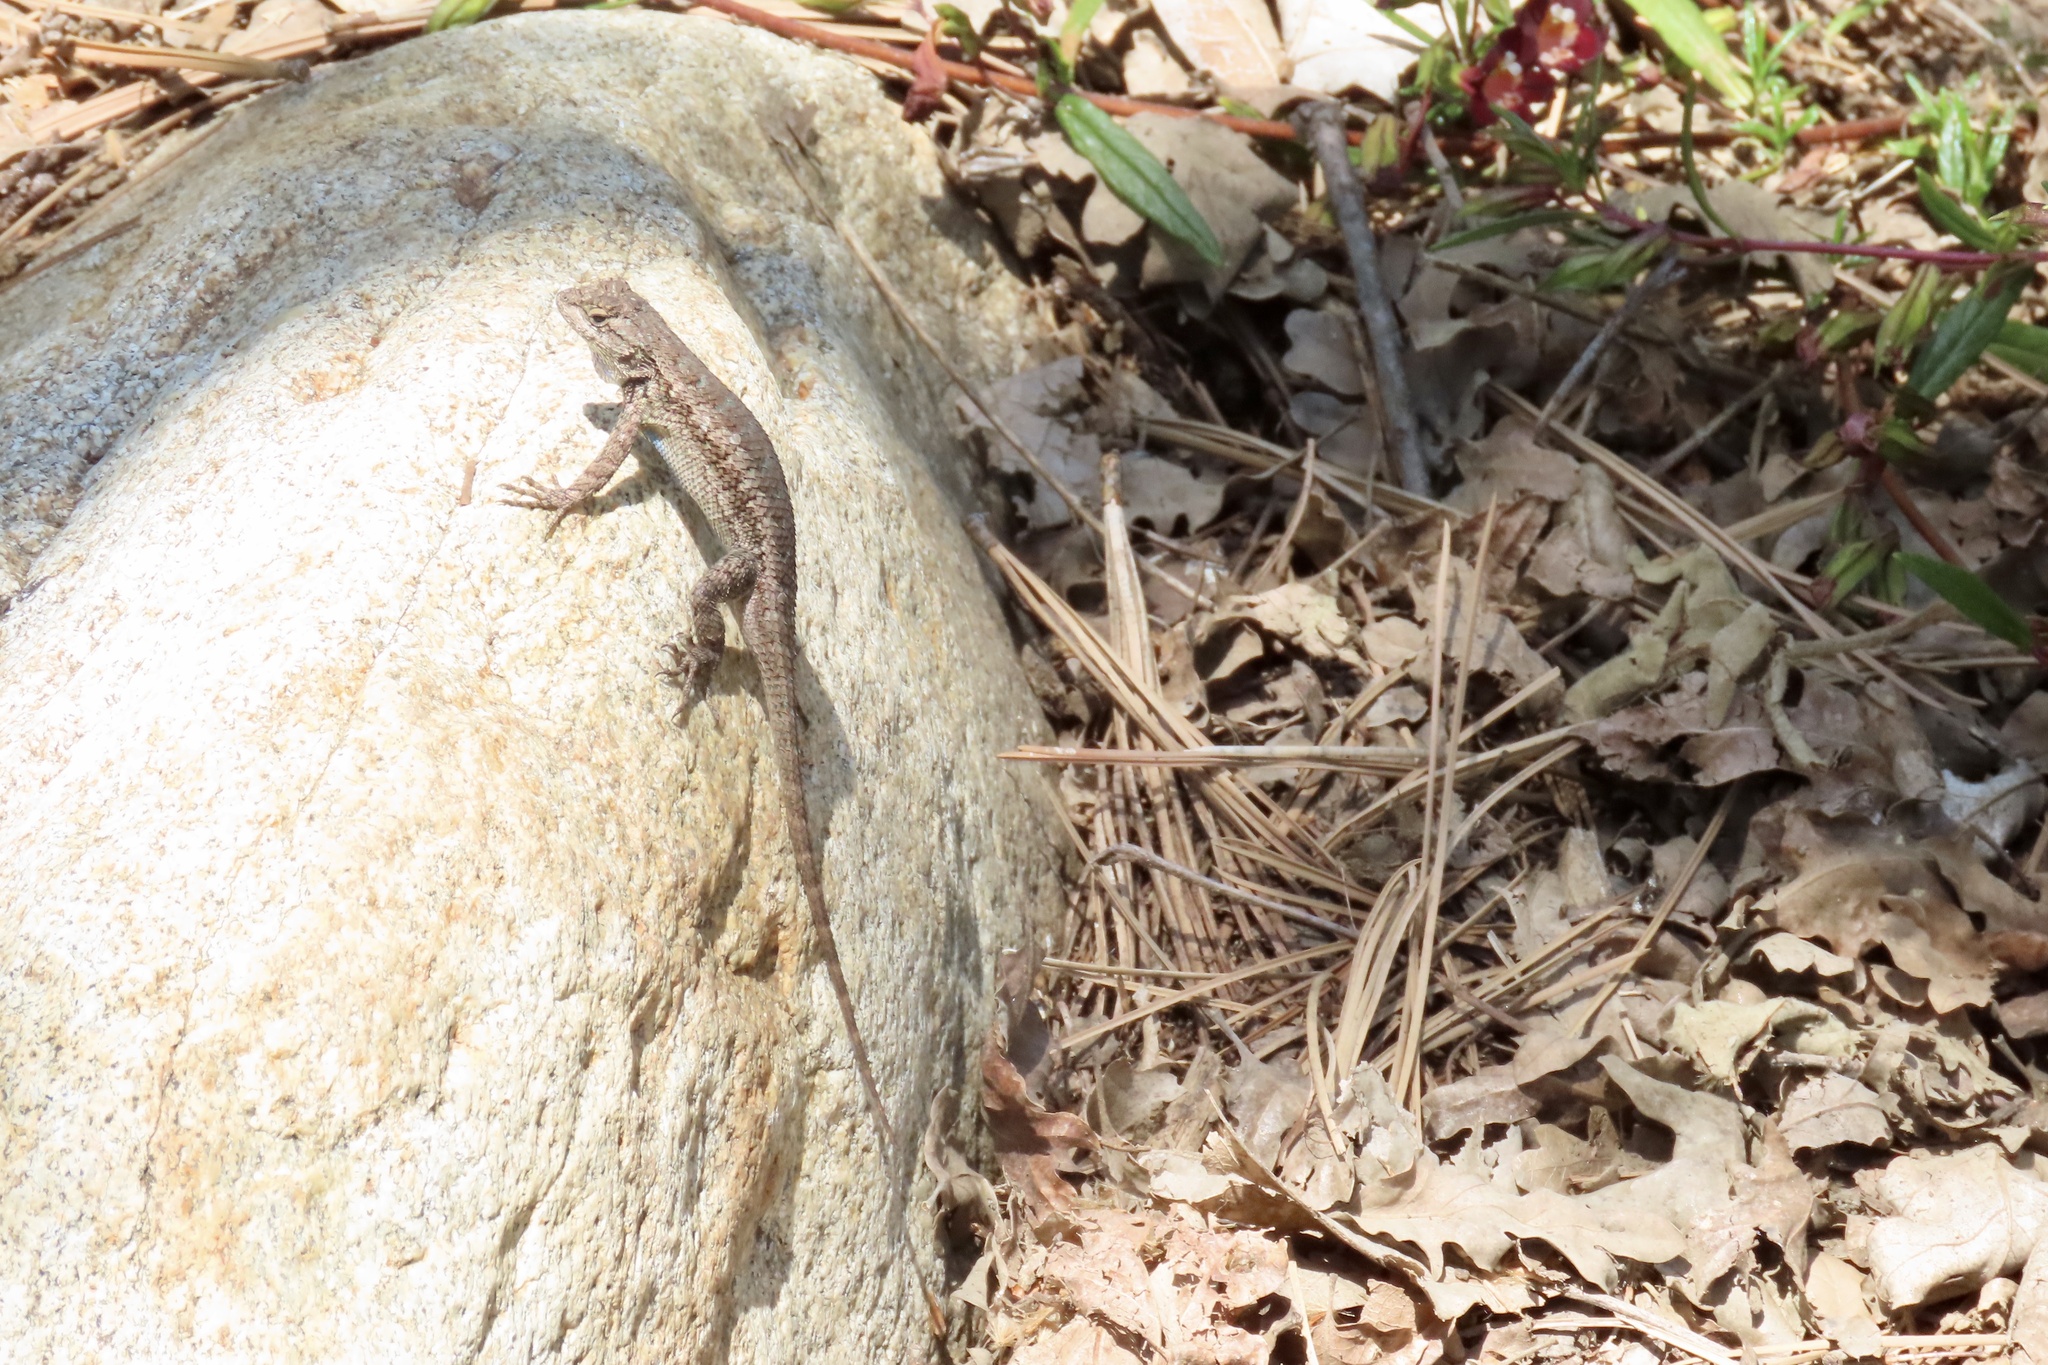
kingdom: Animalia
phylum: Chordata
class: Squamata
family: Phrynosomatidae
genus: Sceloporus
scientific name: Sceloporus occidentalis
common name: Western fence lizard
